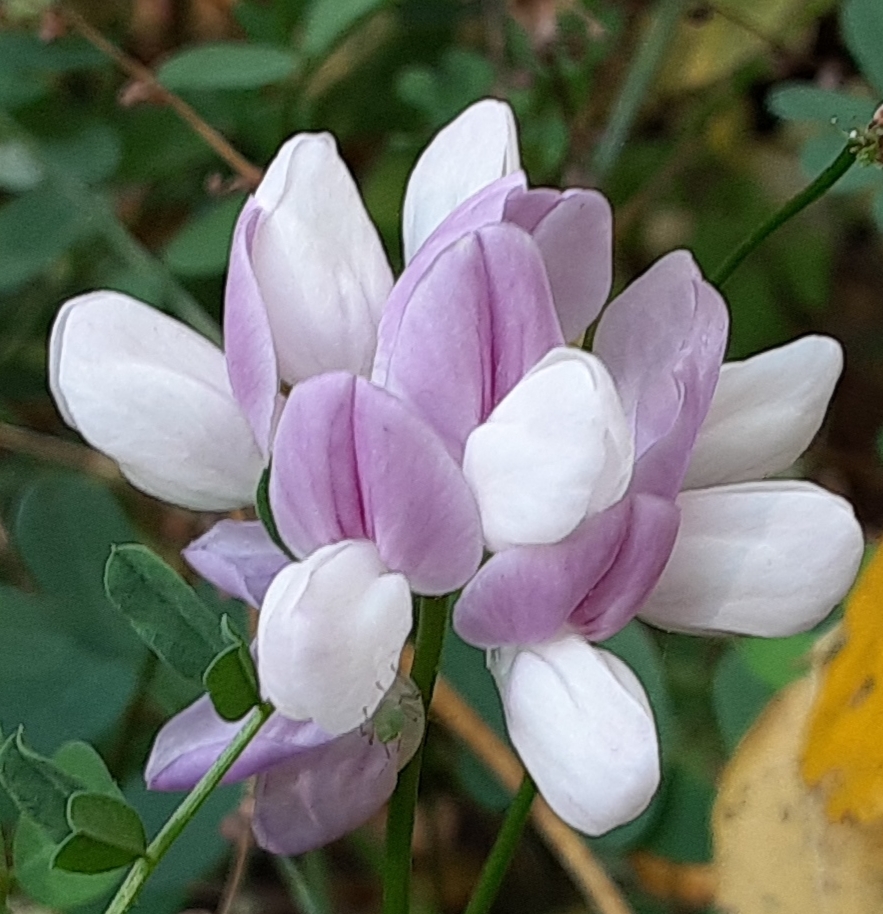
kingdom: Plantae
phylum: Tracheophyta
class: Magnoliopsida
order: Fabales
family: Fabaceae
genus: Coronilla
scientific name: Coronilla varia
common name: Crownvetch
